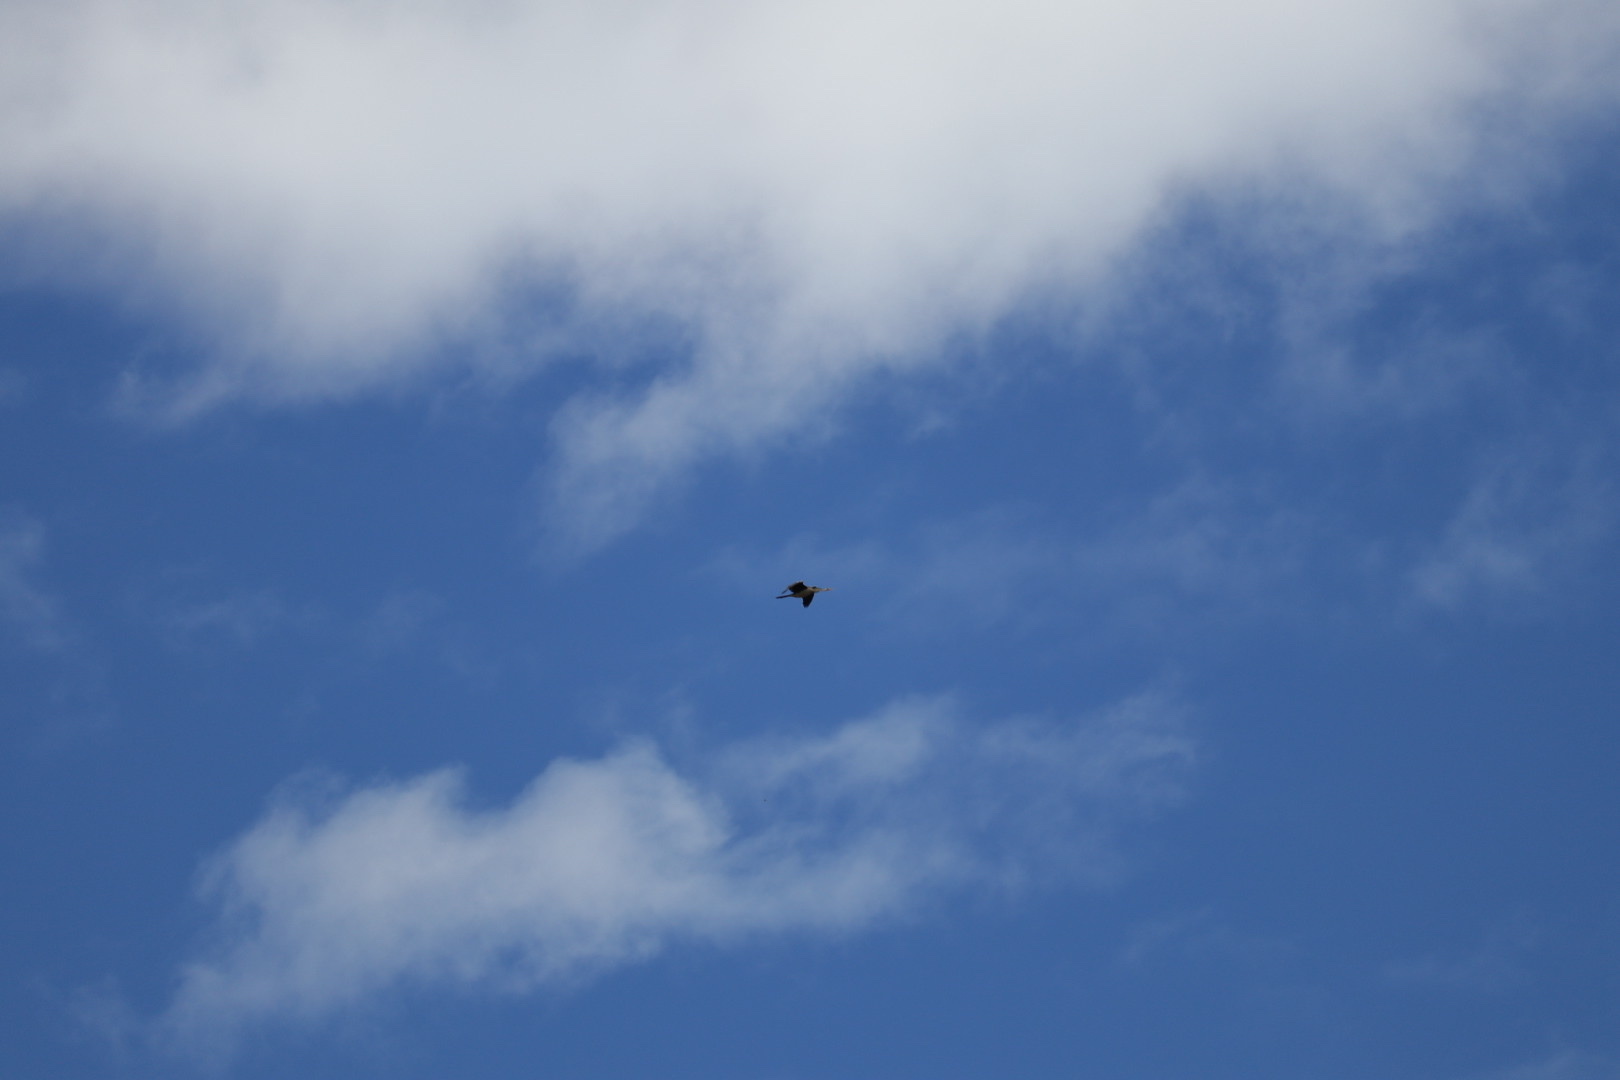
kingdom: Animalia
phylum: Chordata
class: Aves
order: Suliformes
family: Anhingidae
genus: Anhinga
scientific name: Anhinga novaehollandiae
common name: Australasian darter
